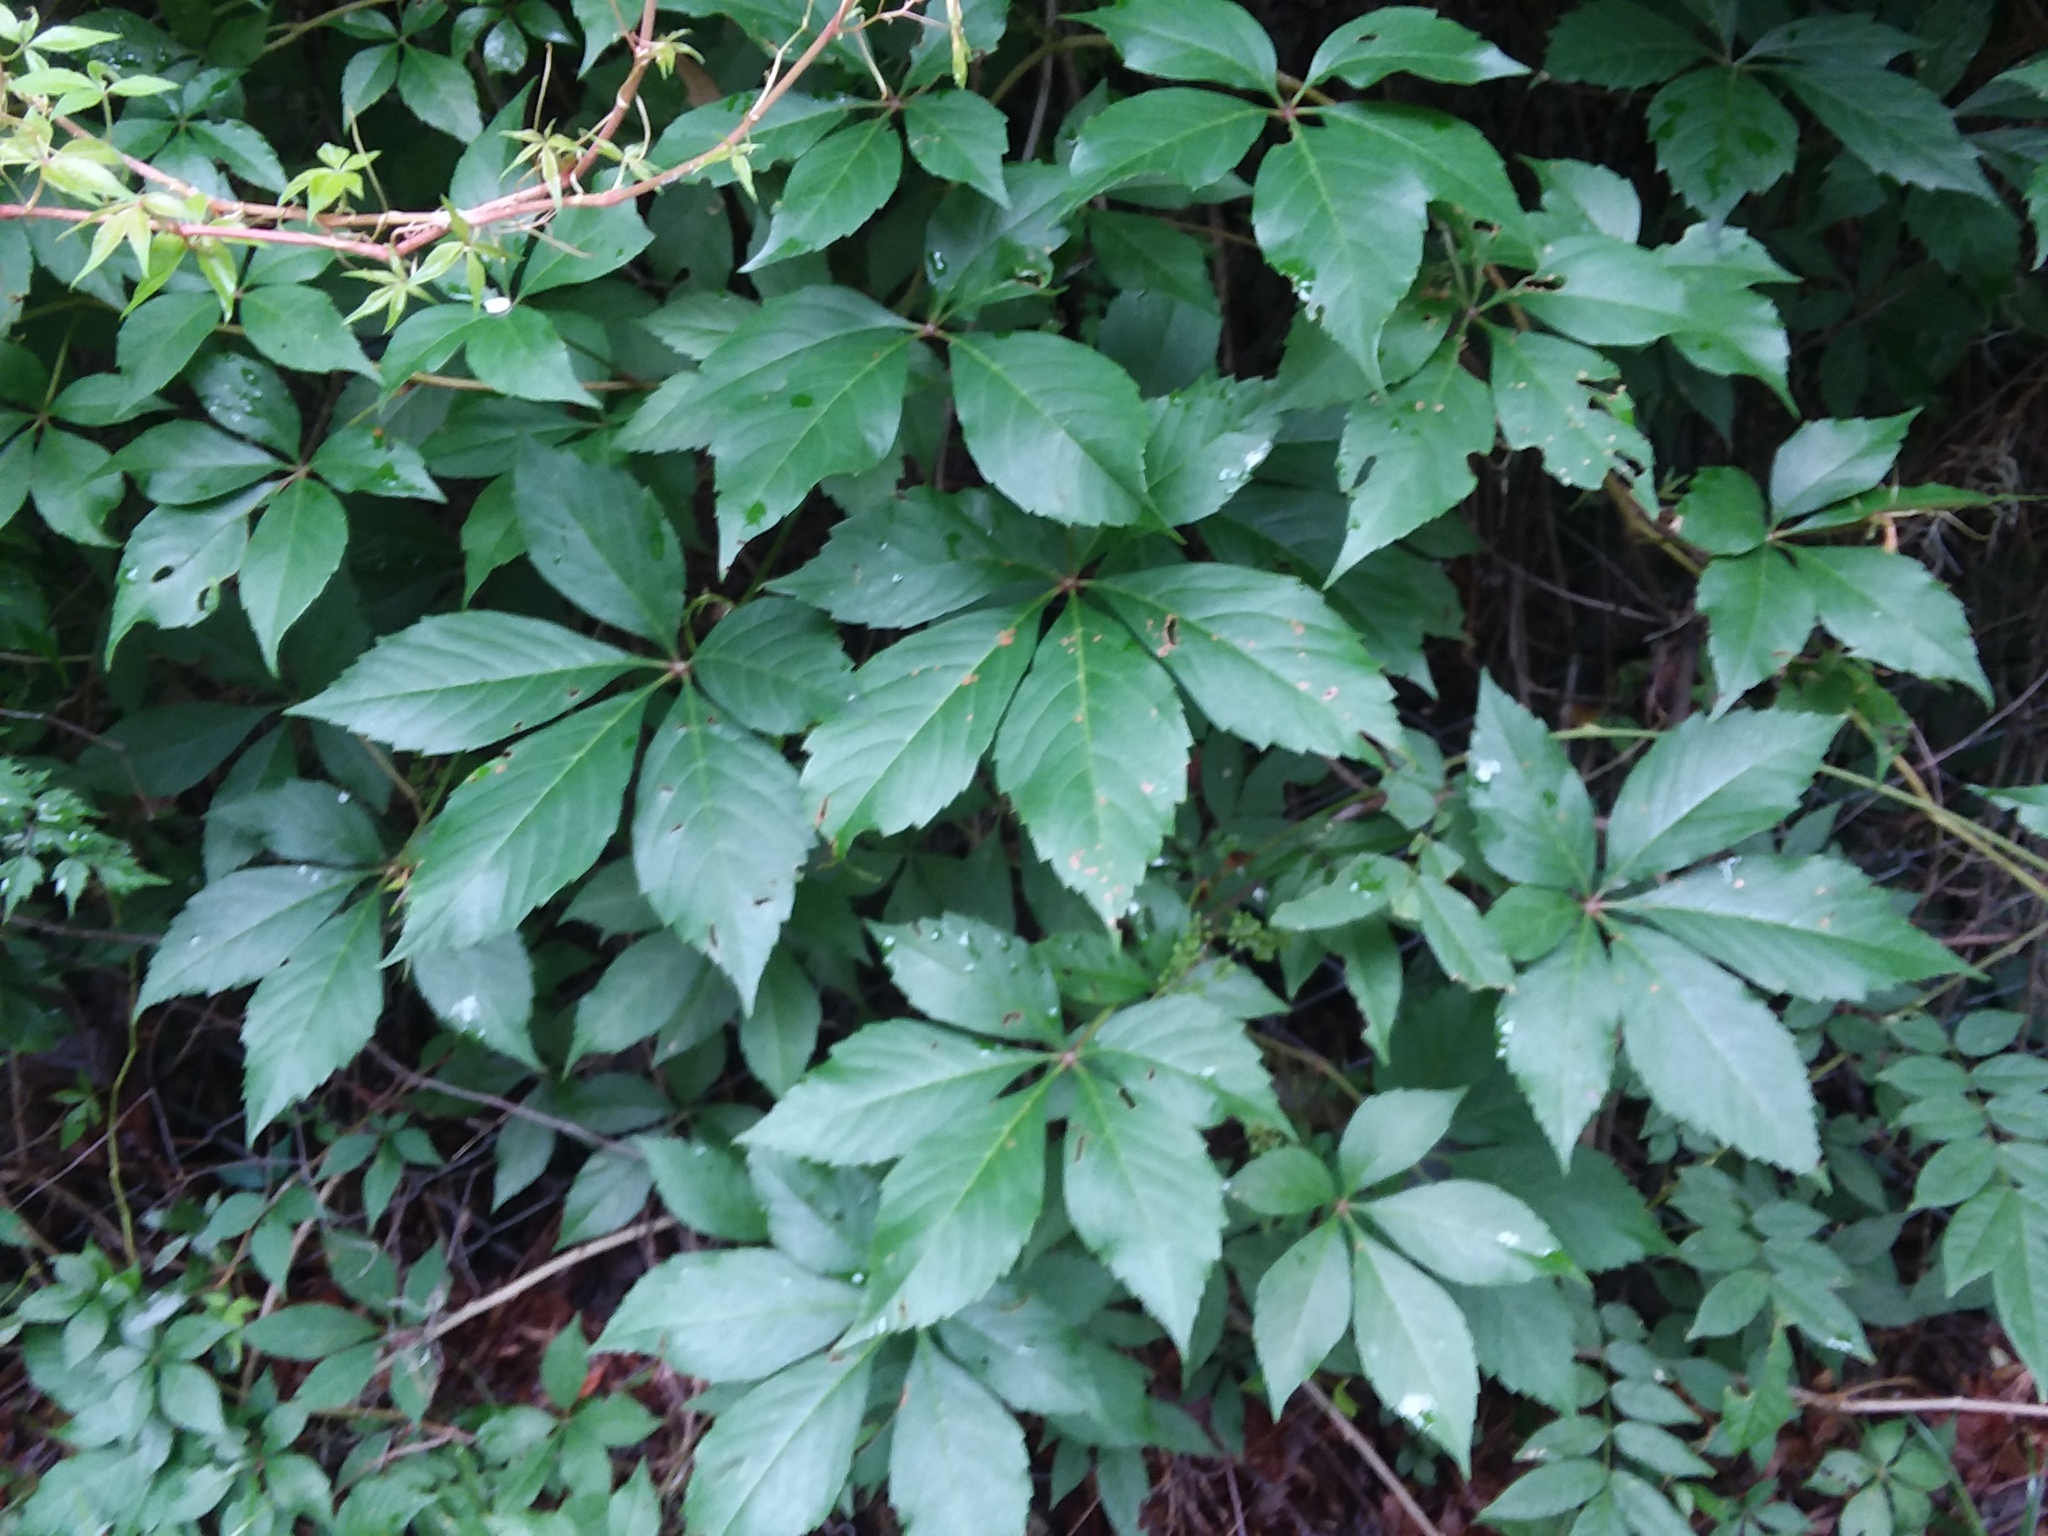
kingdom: Plantae
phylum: Tracheophyta
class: Magnoliopsida
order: Vitales
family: Vitaceae
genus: Parthenocissus
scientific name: Parthenocissus quinquefolia
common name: Virginia-creeper
